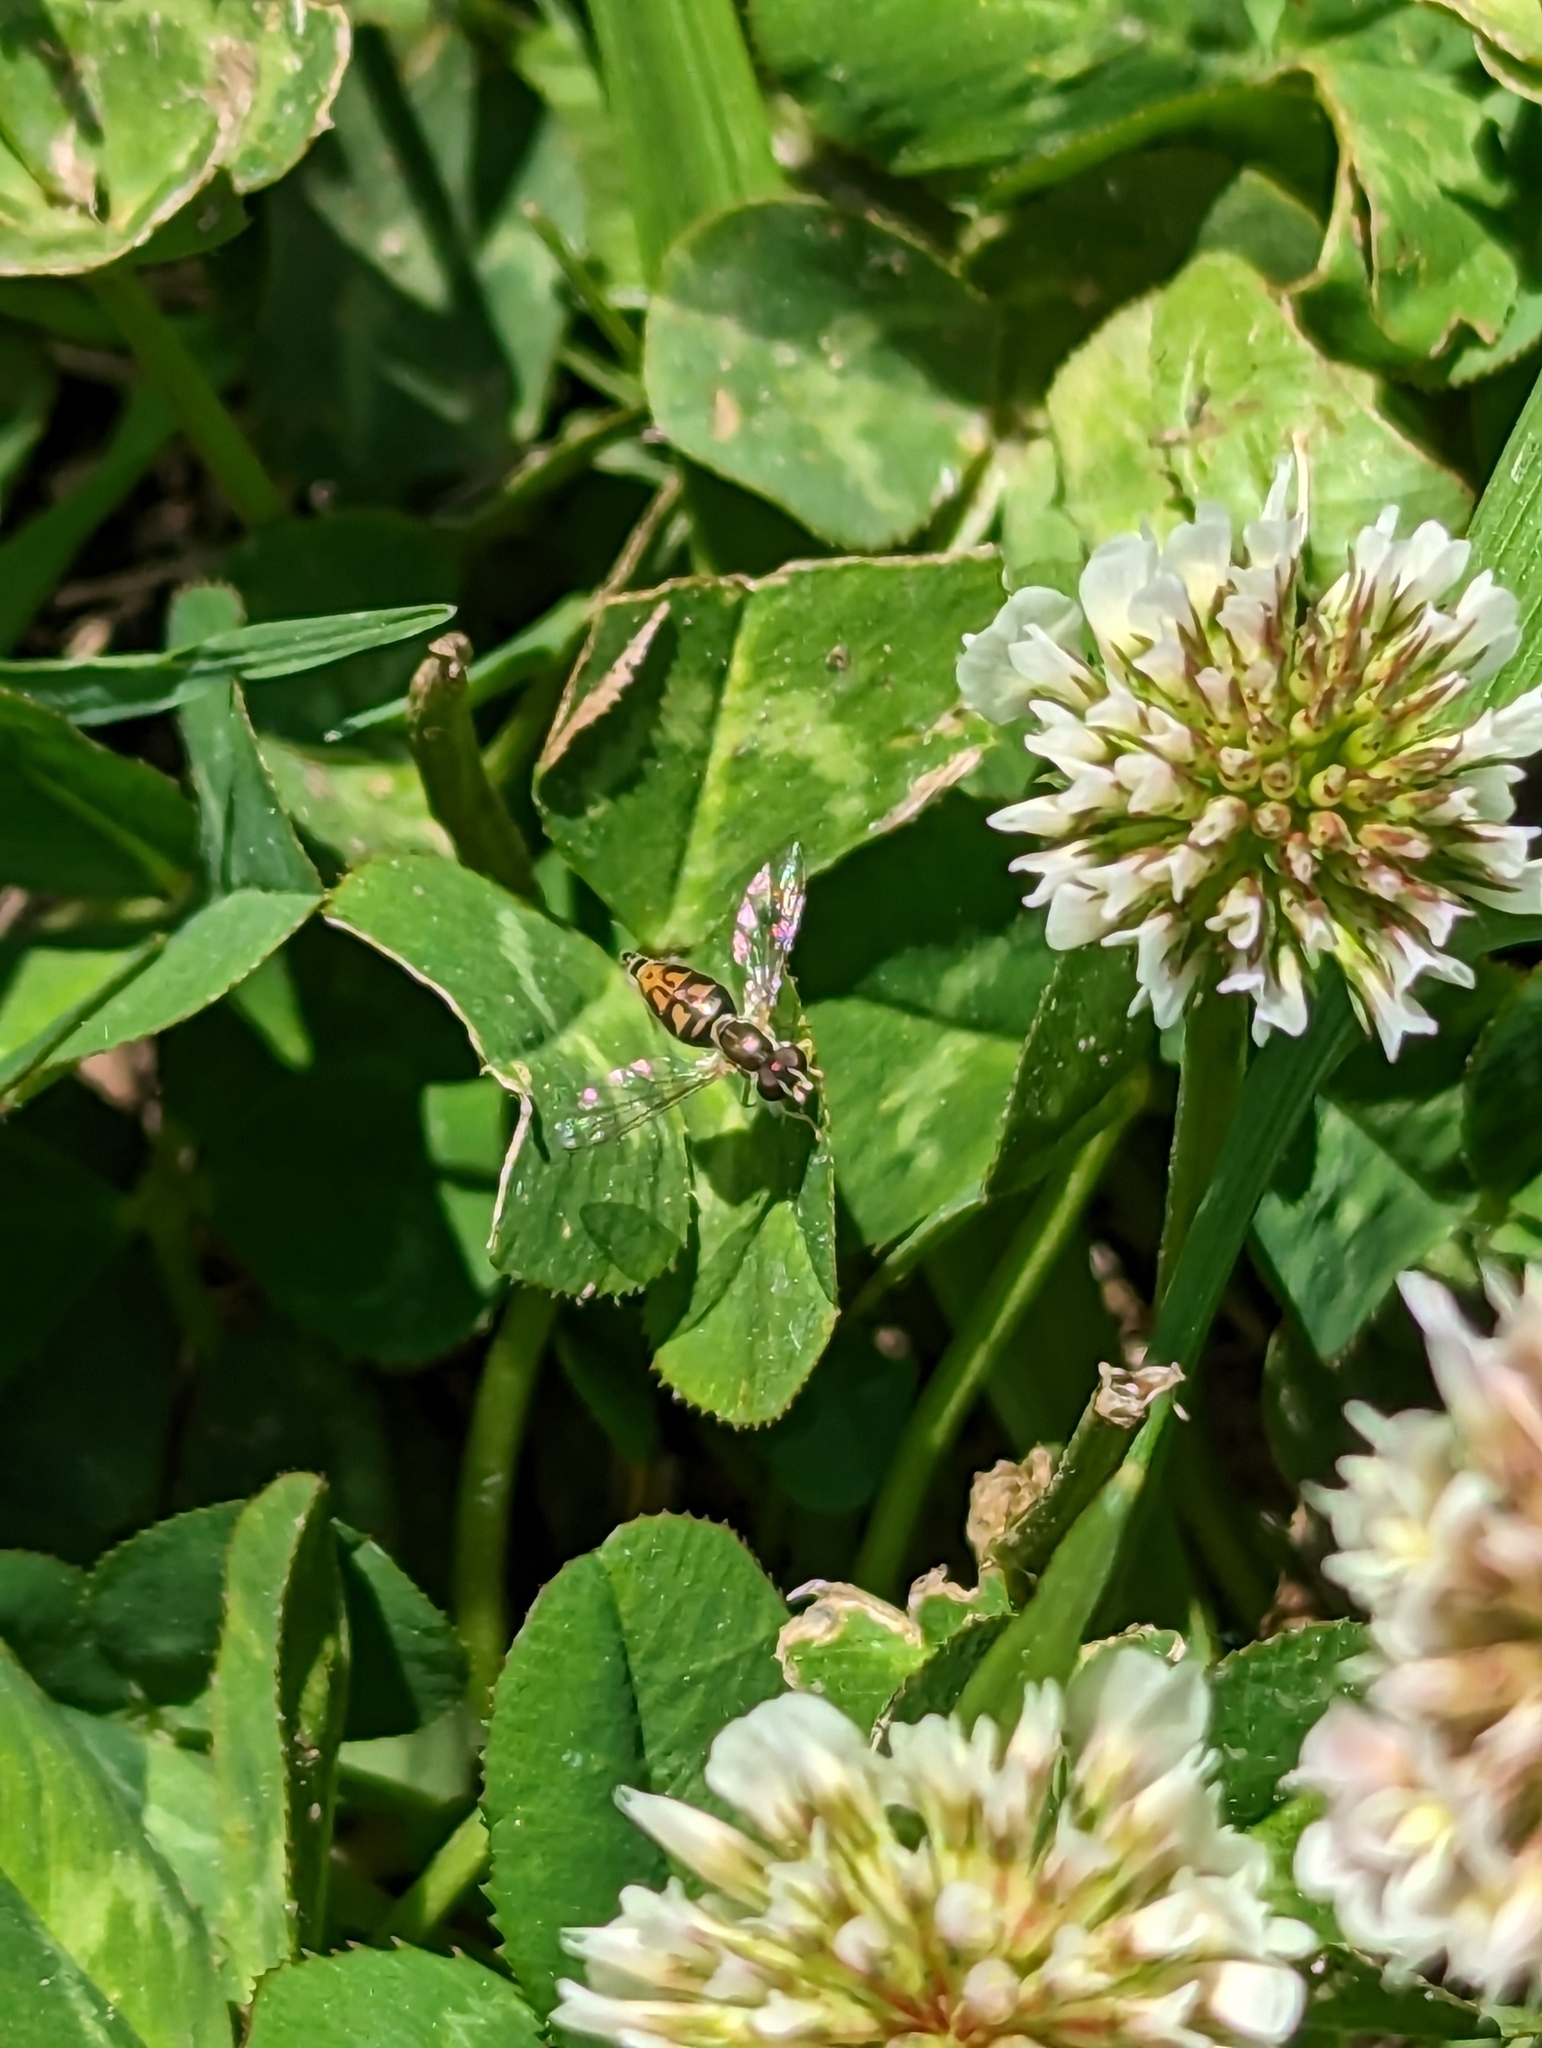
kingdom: Animalia
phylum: Arthropoda
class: Insecta
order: Diptera
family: Syrphidae
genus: Toxomerus
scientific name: Toxomerus marginatus
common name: Syrphid fly
